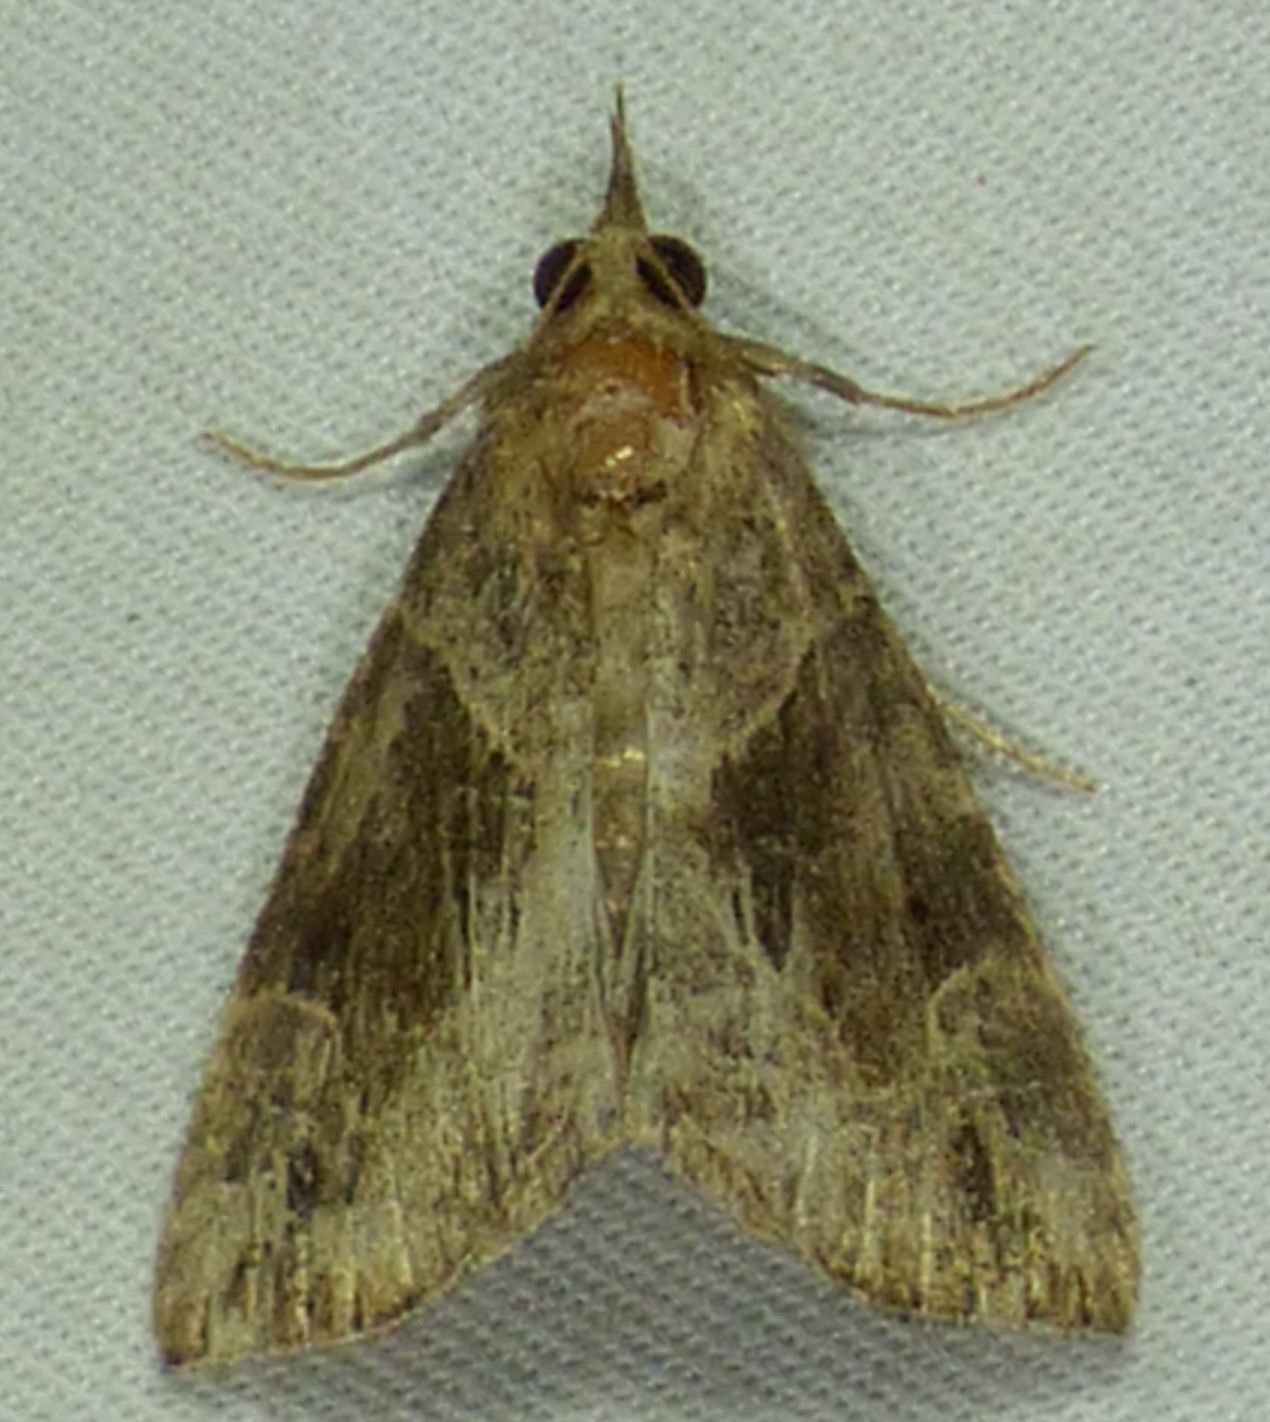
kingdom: Animalia
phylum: Arthropoda
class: Insecta
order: Lepidoptera
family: Erebidae
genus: Hypena
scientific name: Hypena manalis
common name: Flowing-line bomolocha moth
